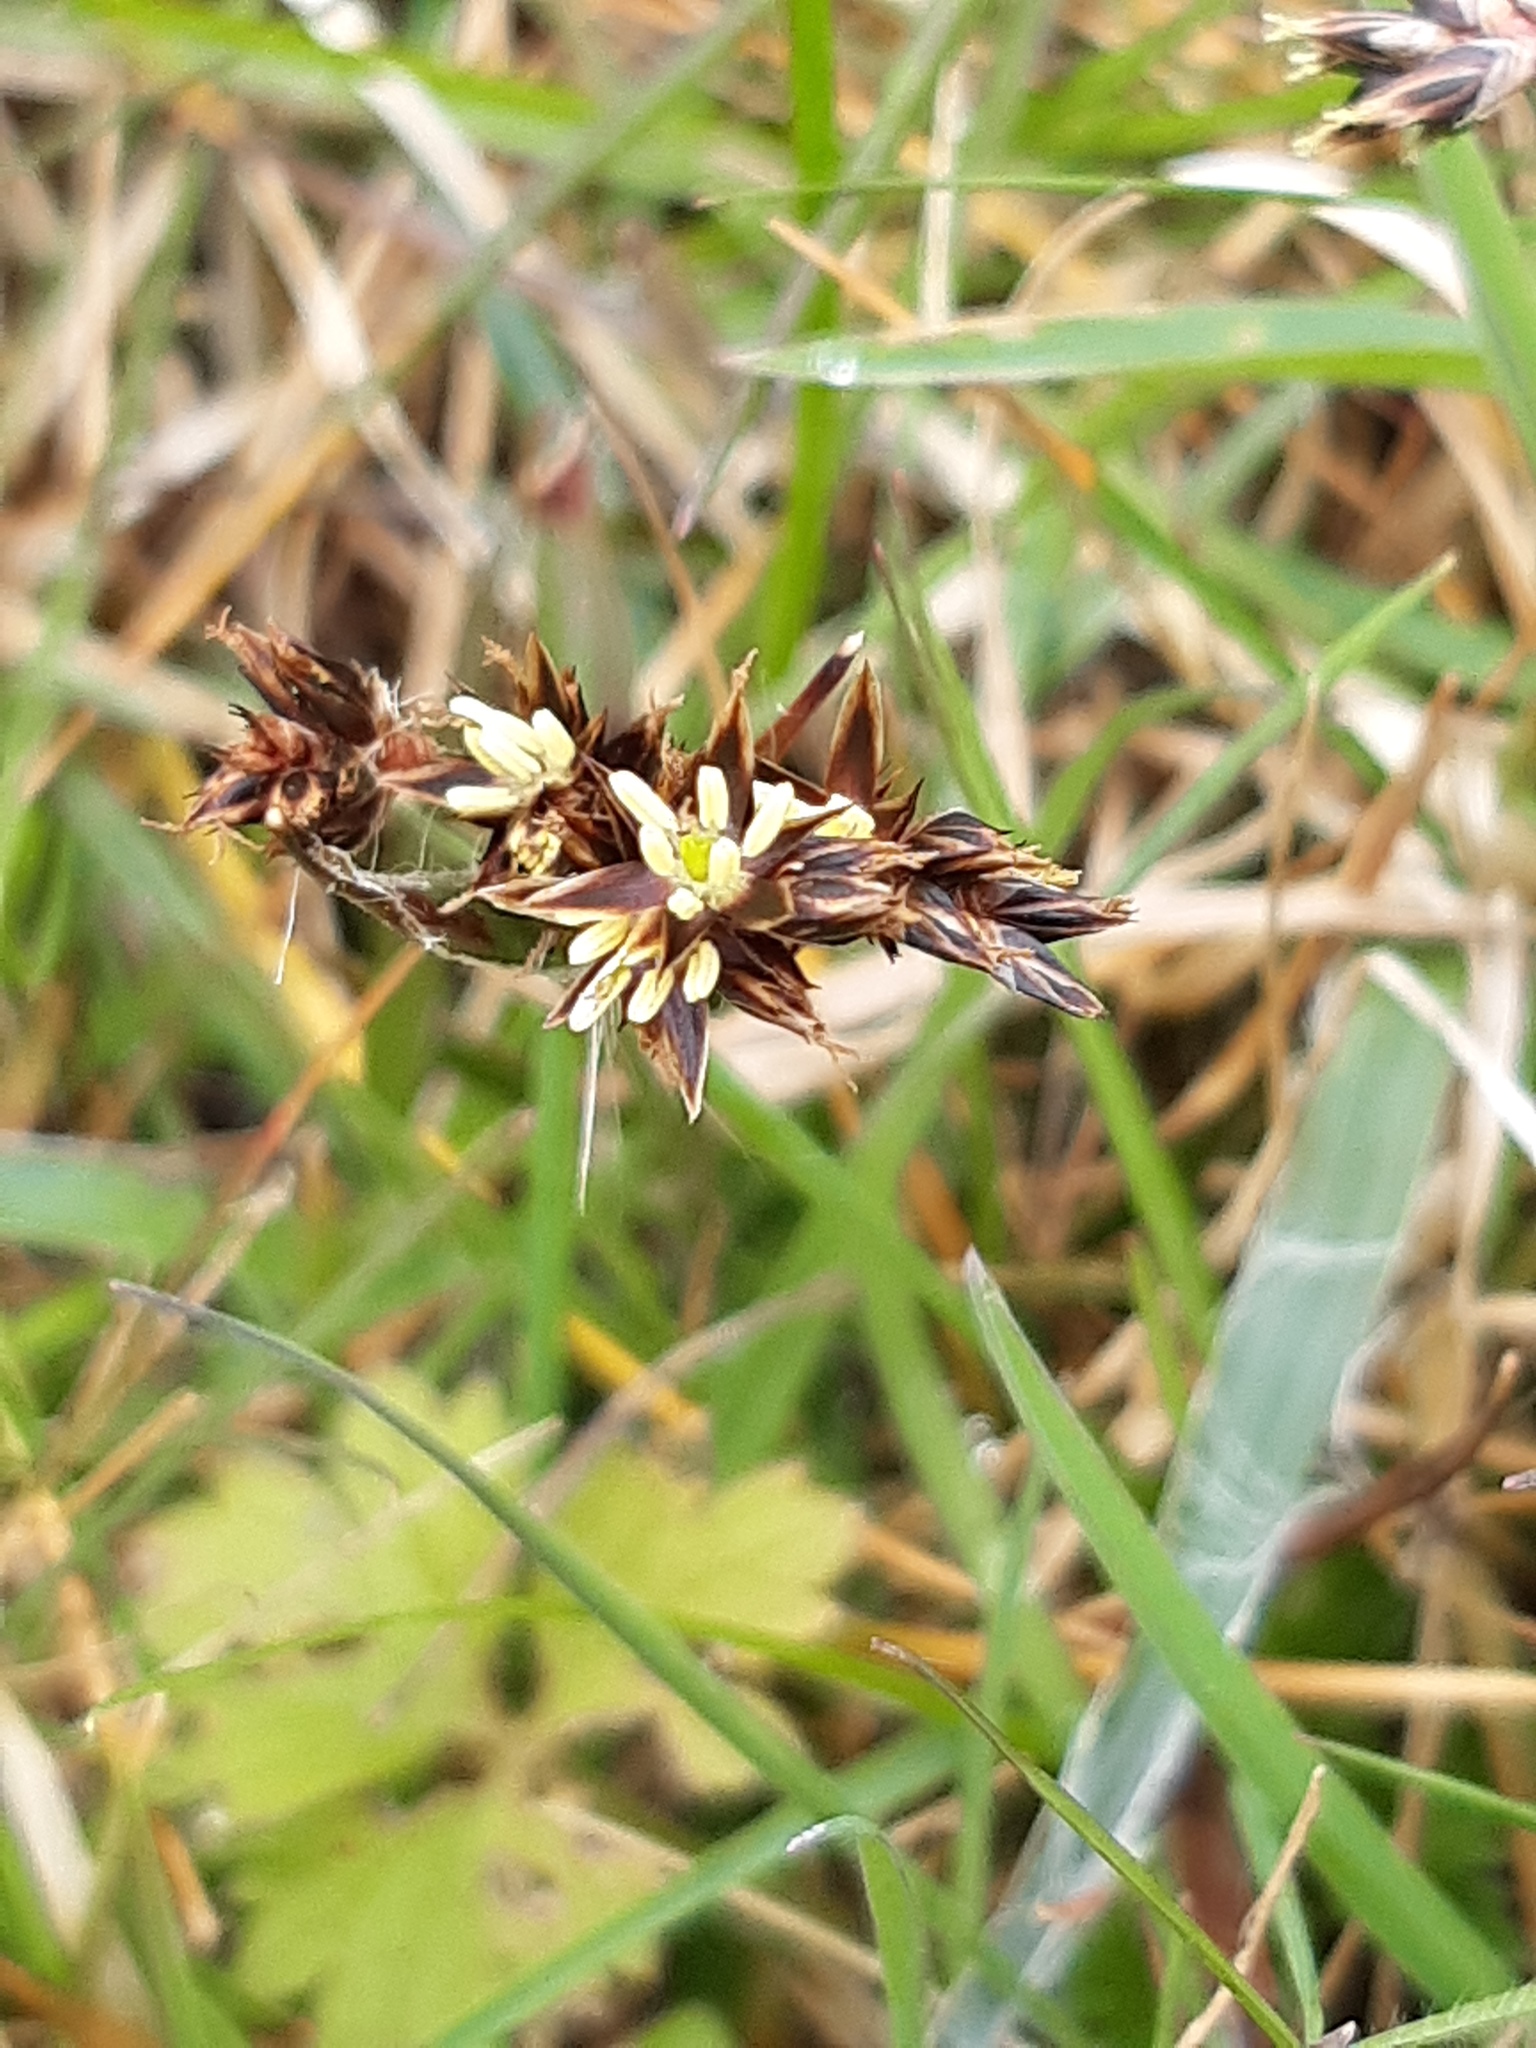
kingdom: Plantae
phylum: Tracheophyta
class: Liliopsida
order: Poales
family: Juncaceae
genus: Luzula
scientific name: Luzula campestris
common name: Field wood-rush
